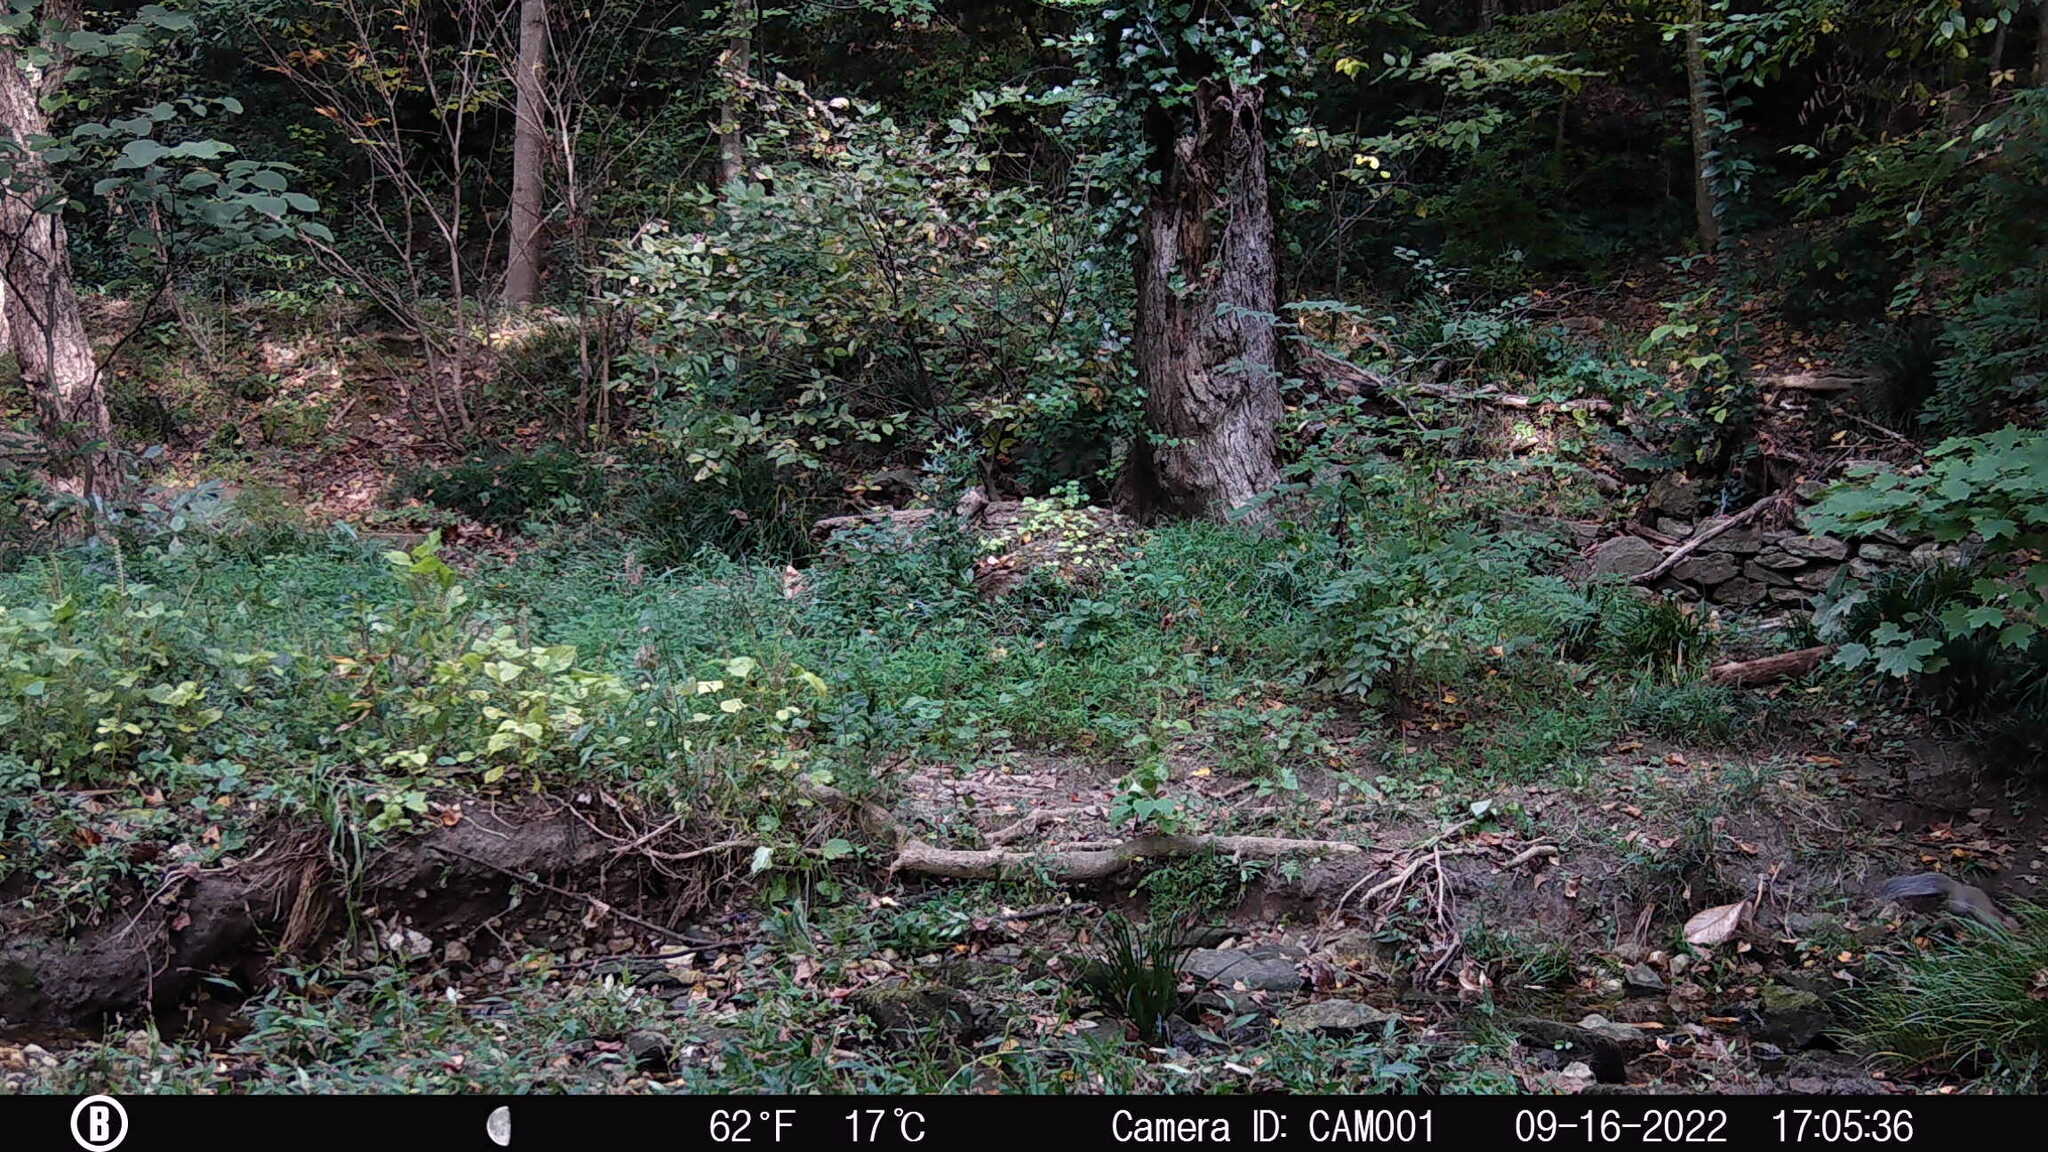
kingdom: Animalia
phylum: Chordata
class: Mammalia
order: Rodentia
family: Sciuridae
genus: Sciurus
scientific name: Sciurus carolinensis
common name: Eastern gray squirrel
